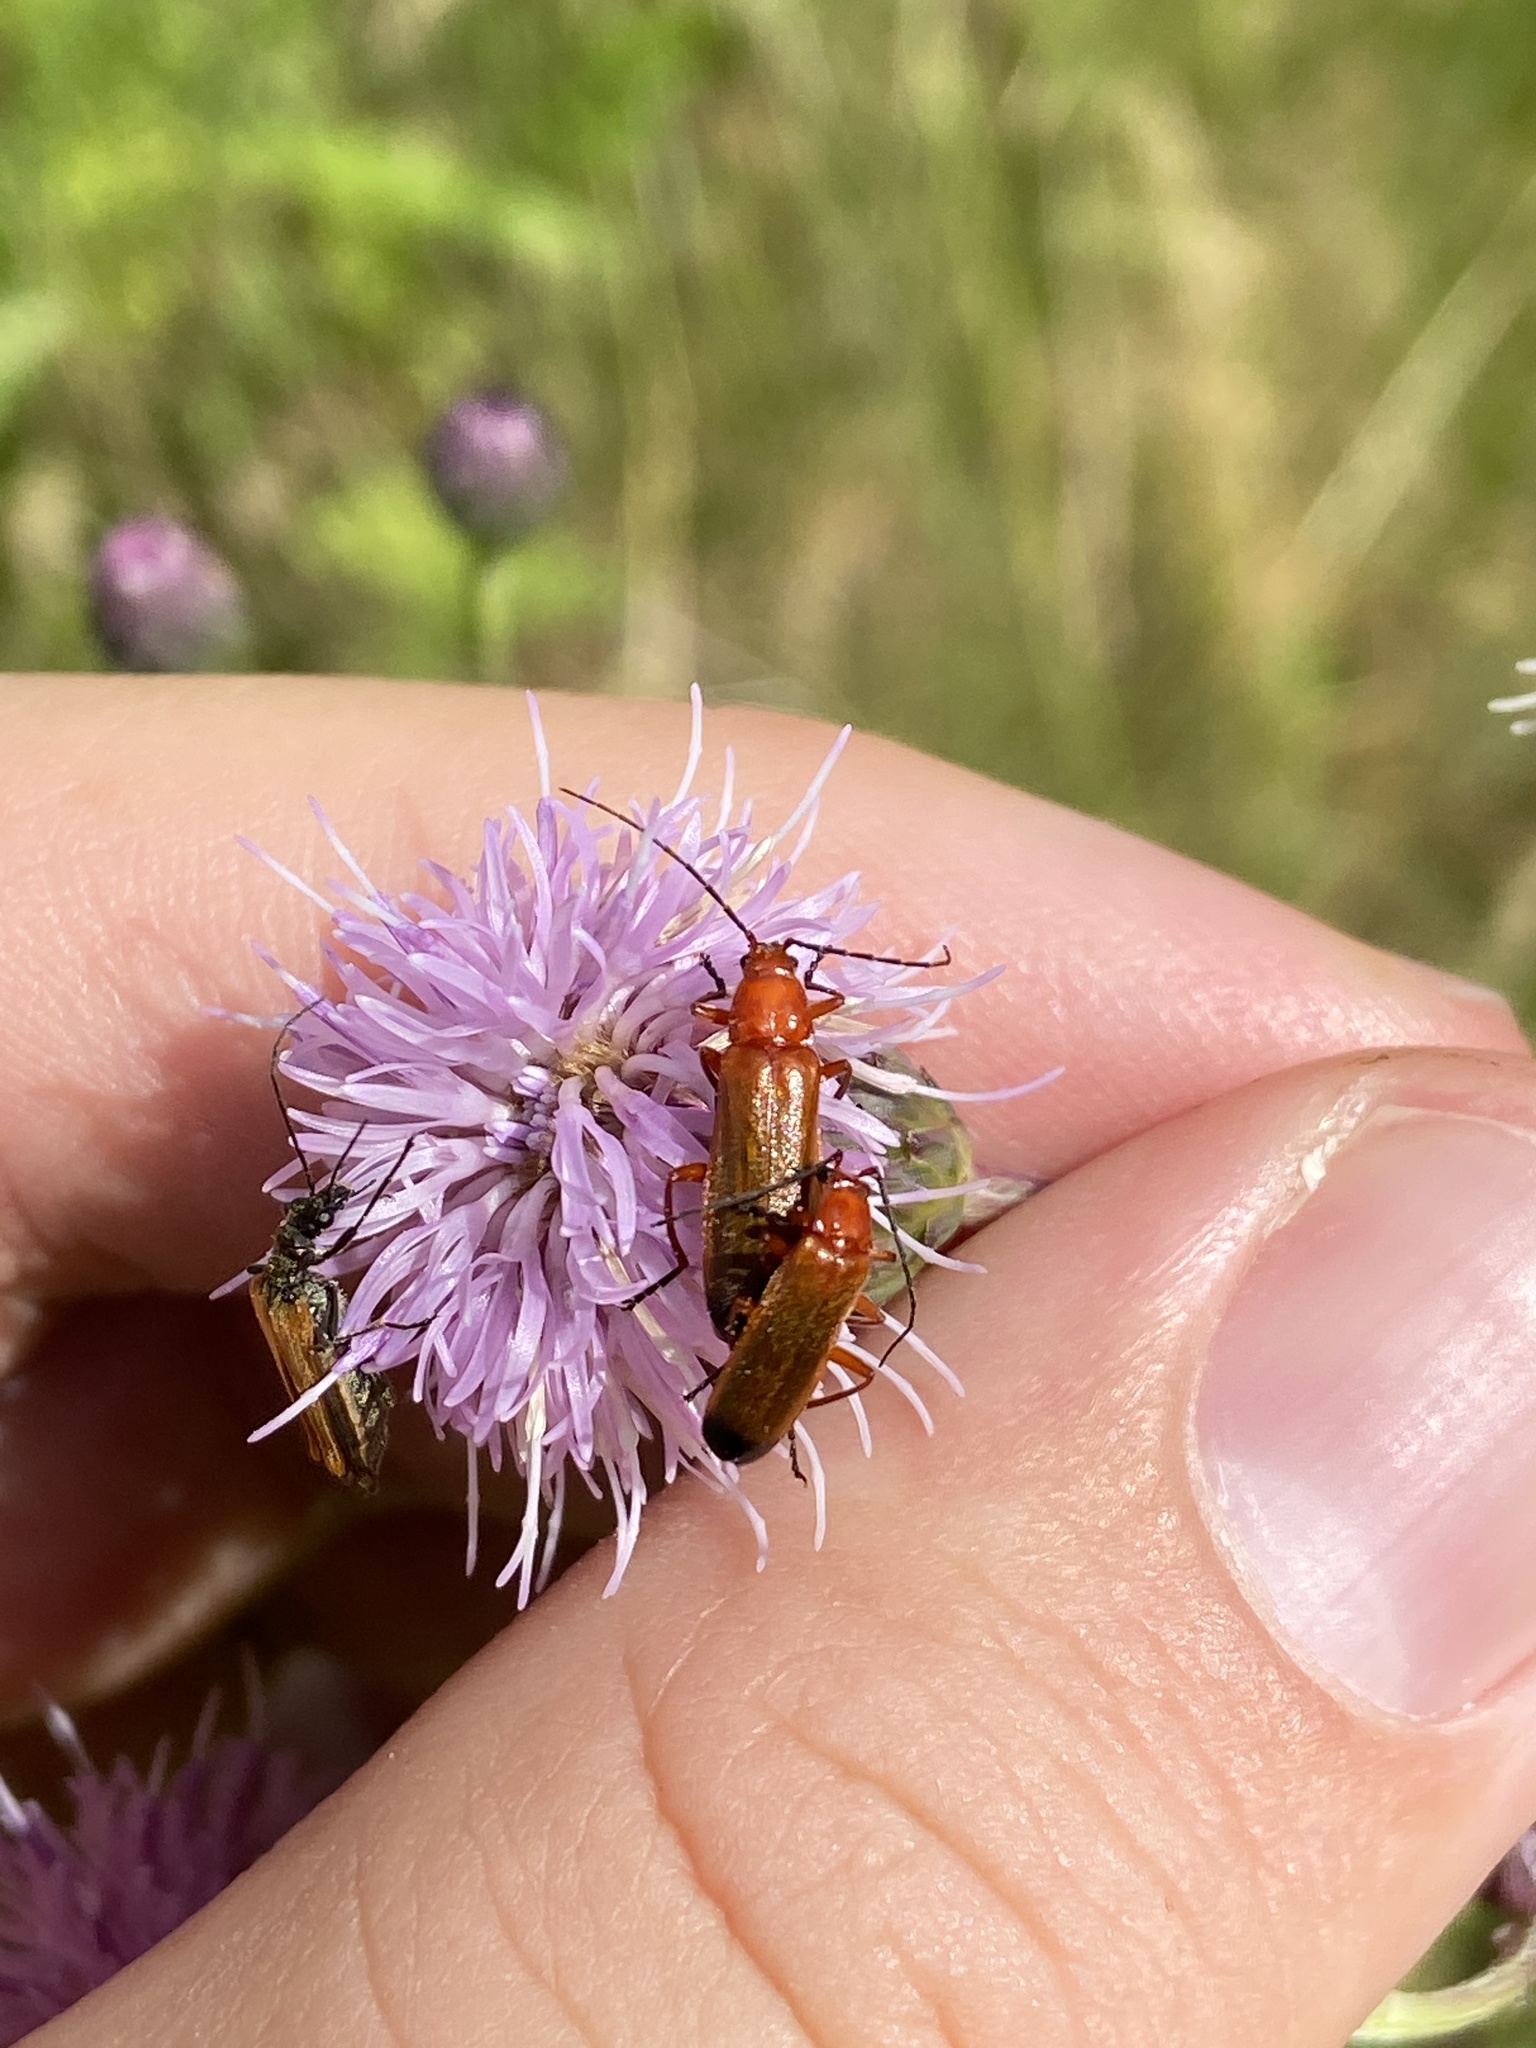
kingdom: Animalia
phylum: Arthropoda
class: Insecta
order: Coleoptera
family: Cantharidae
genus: Rhagonycha
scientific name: Rhagonycha fulva
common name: Common red soldier beetle
